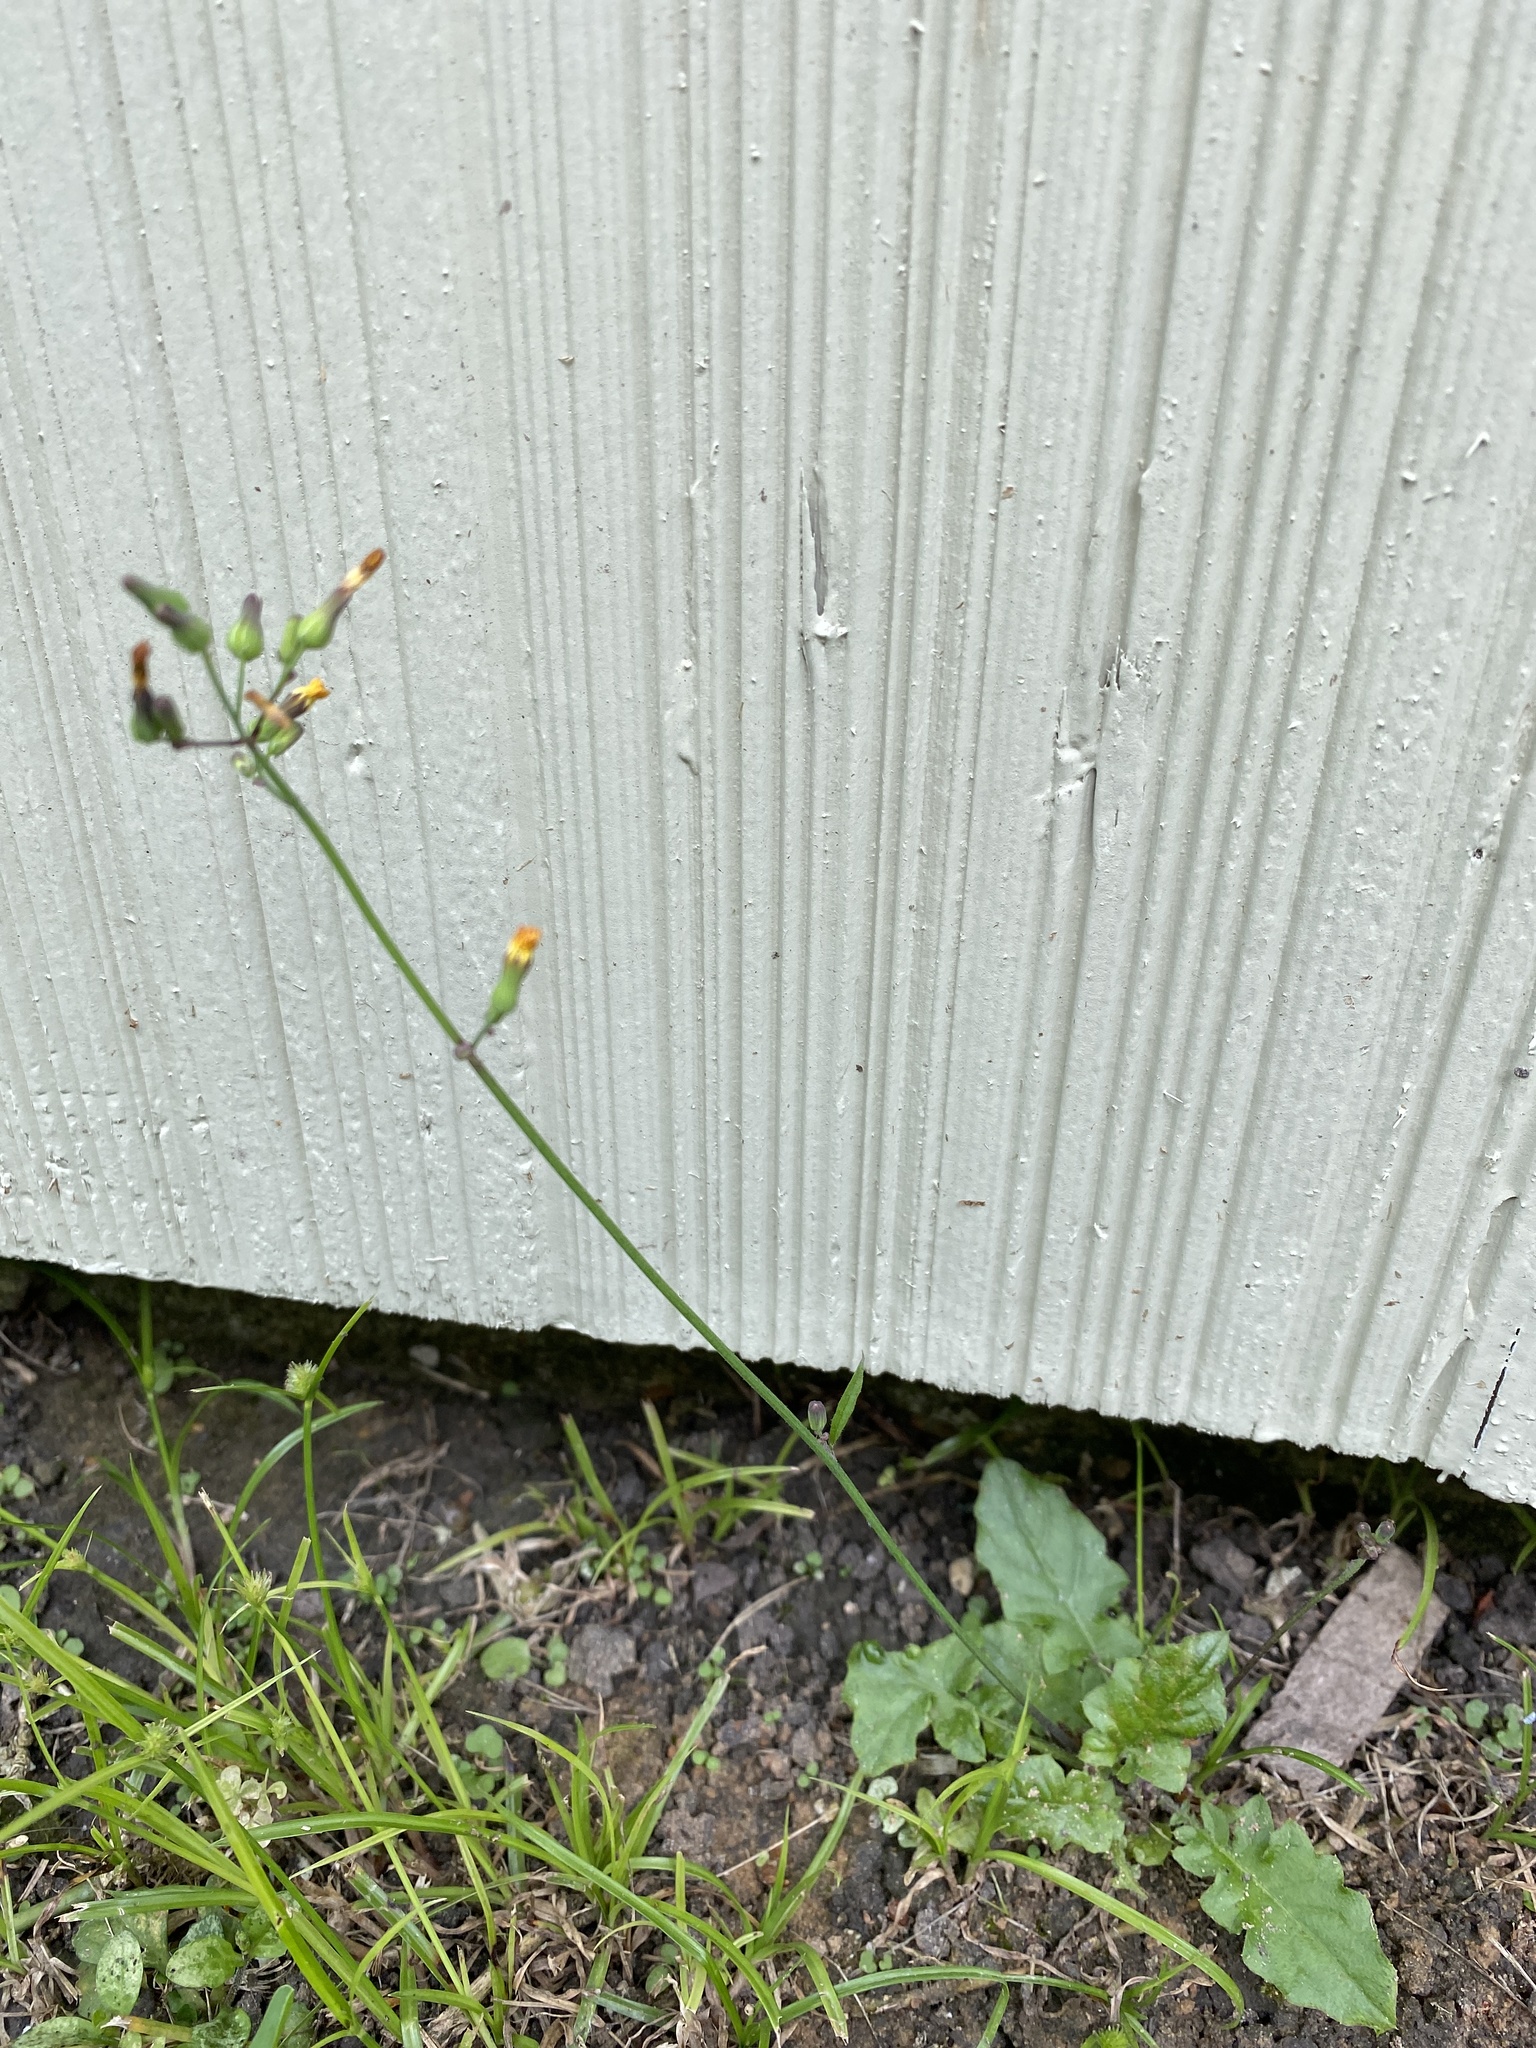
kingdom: Plantae
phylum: Tracheophyta
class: Magnoliopsida
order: Asterales
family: Asteraceae
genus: Youngia
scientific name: Youngia japonica
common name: Oriental false hawksbeard
